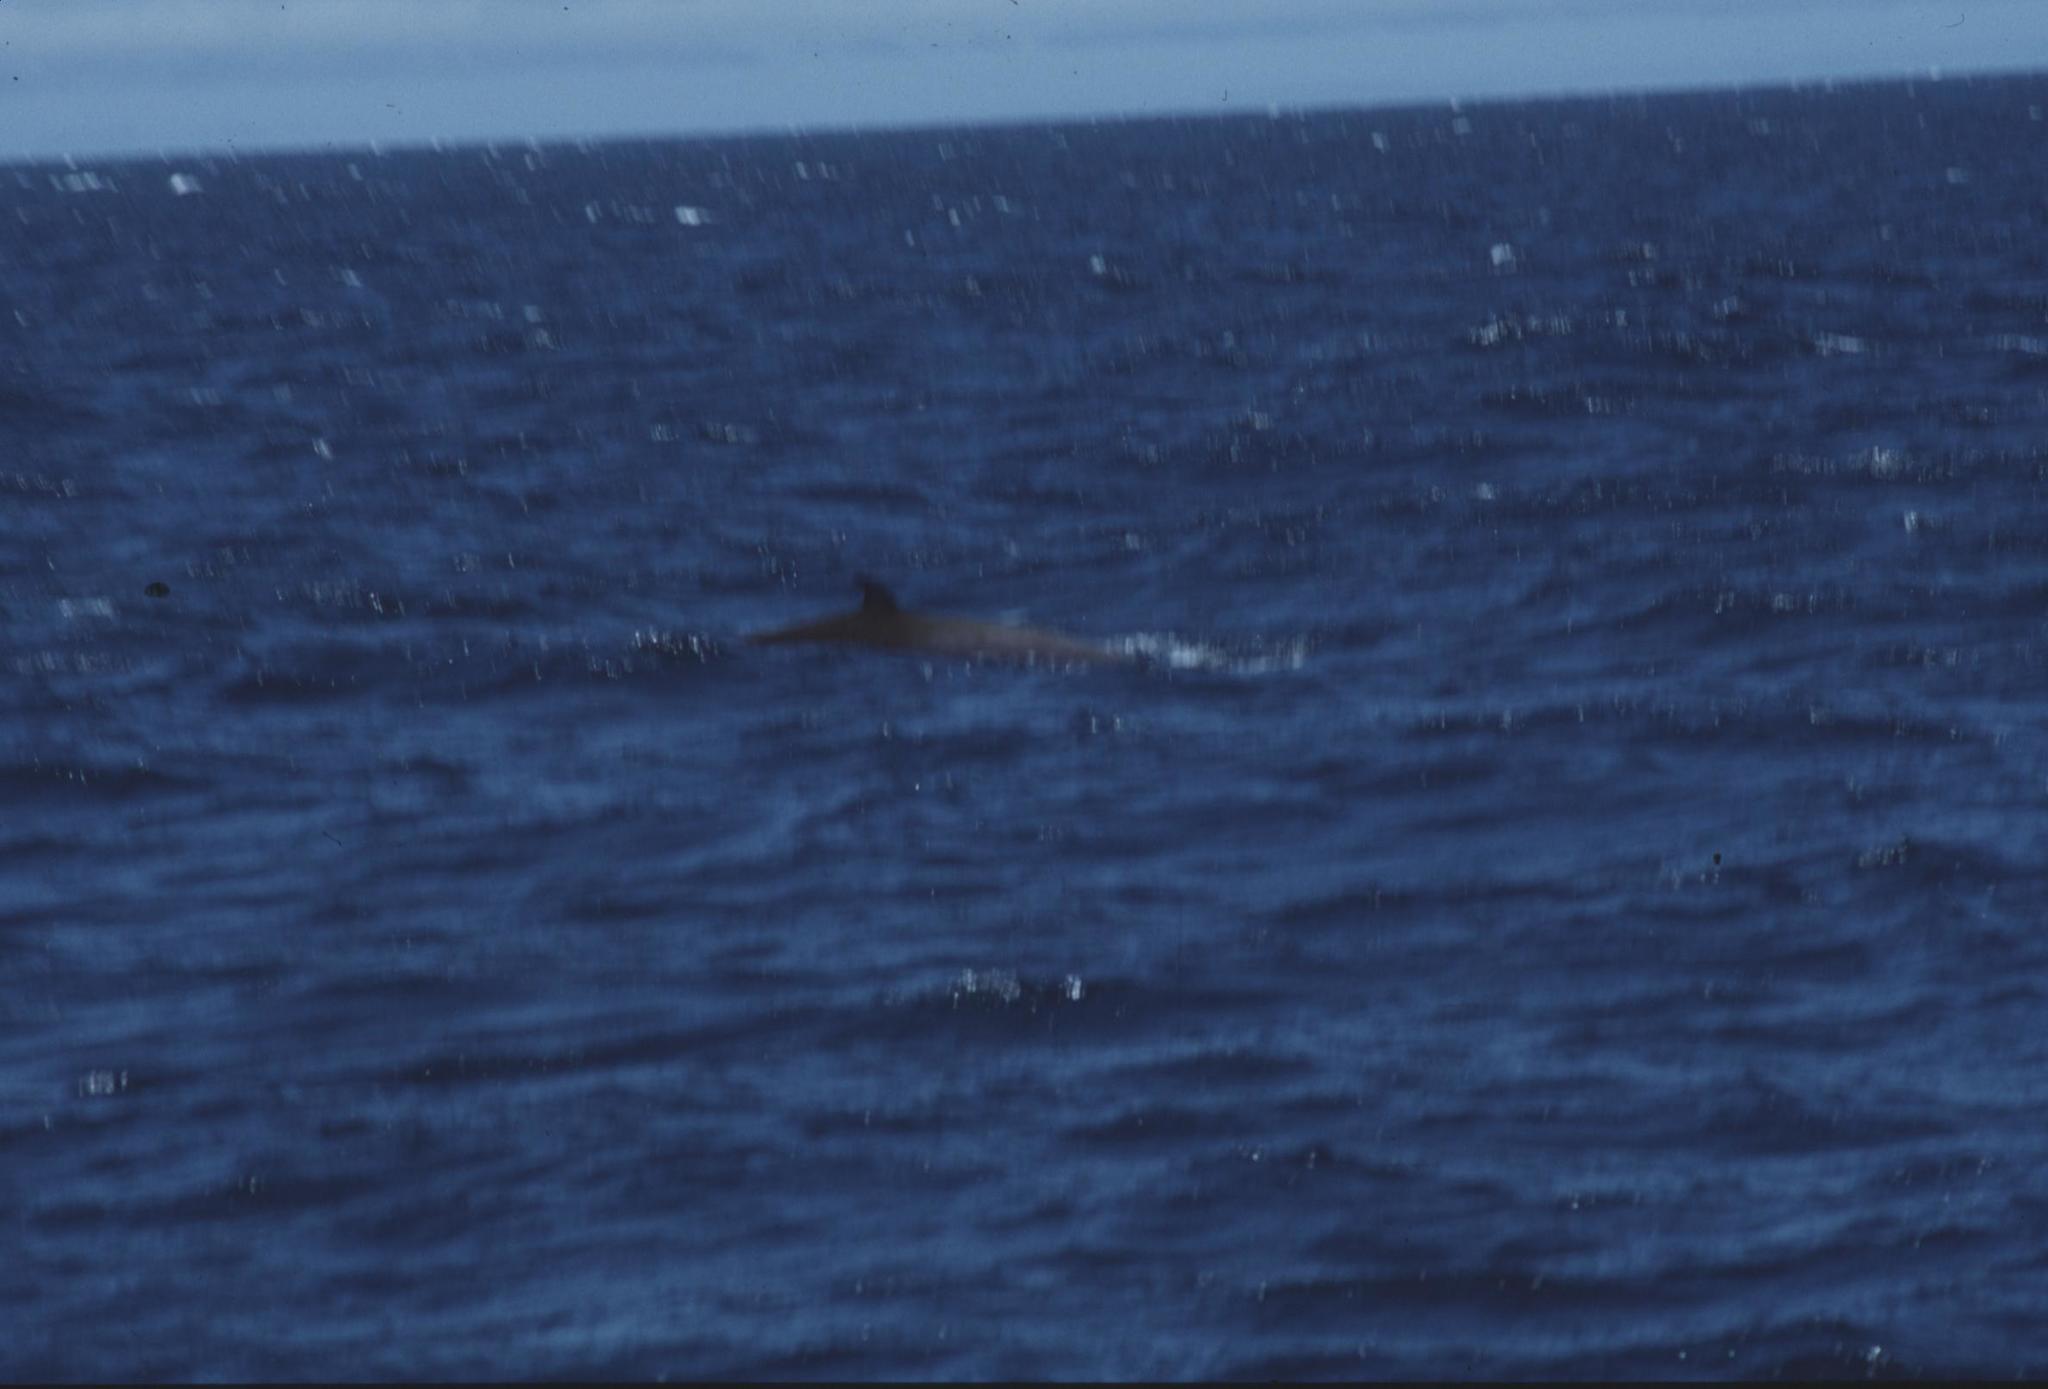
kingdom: Animalia
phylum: Chordata
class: Mammalia
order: Cetacea
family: Hyperoodontidae
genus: Ziphius
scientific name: Ziphius cavirostris
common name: Cuvier's beaked whale
